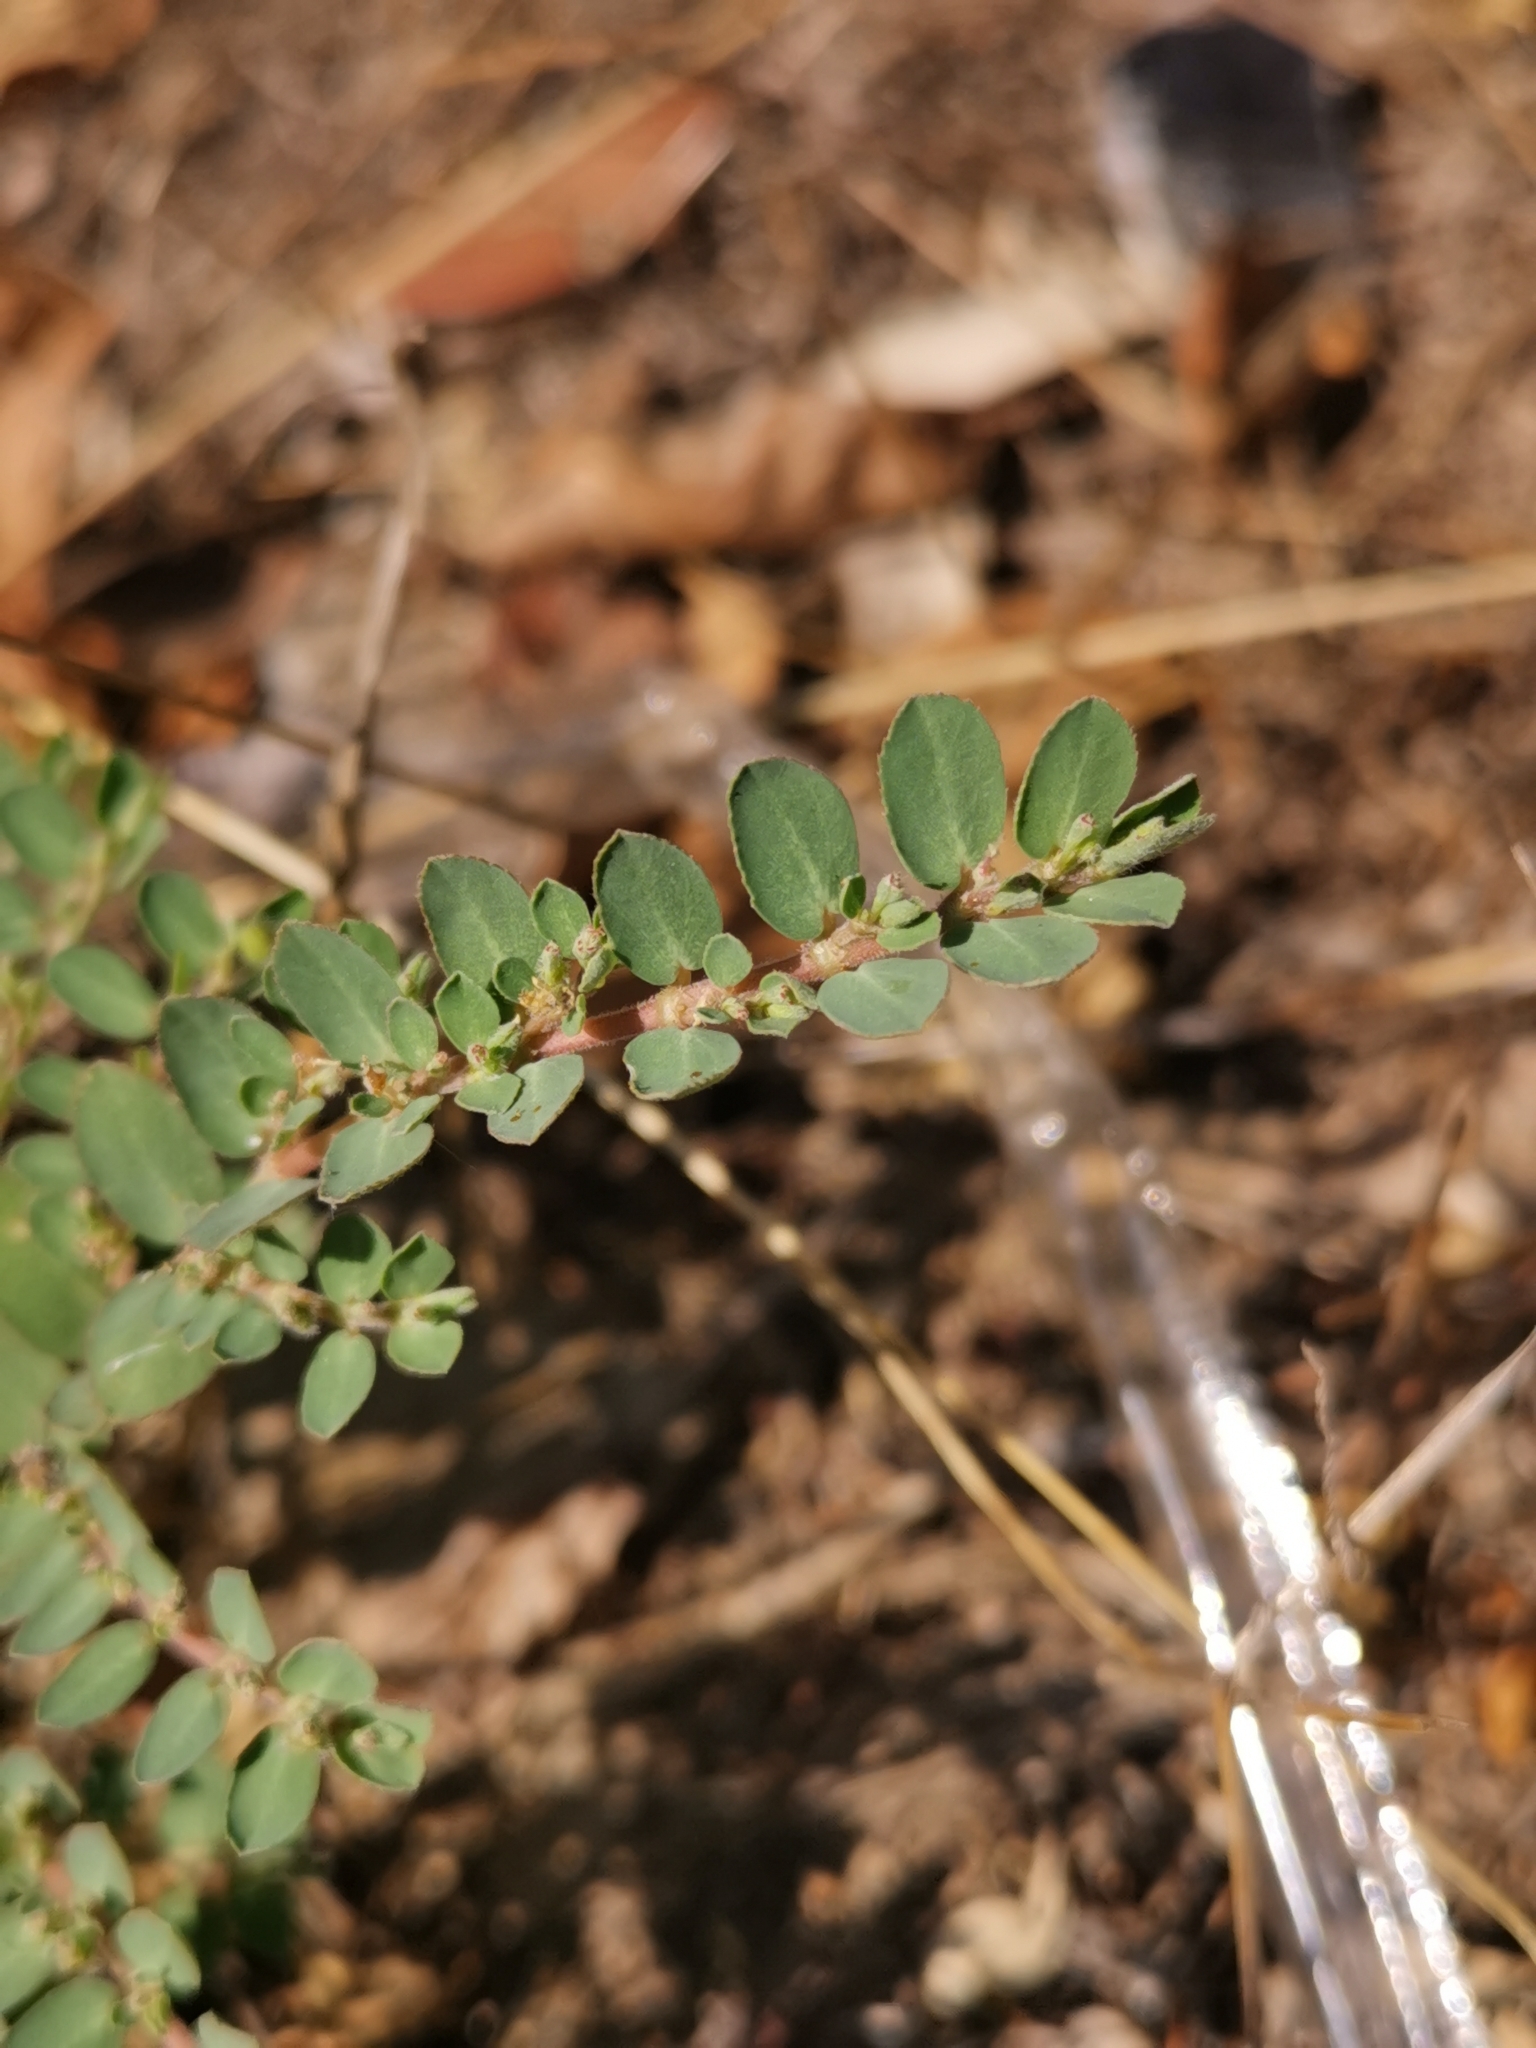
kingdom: Plantae
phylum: Tracheophyta
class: Magnoliopsida
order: Malpighiales
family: Euphorbiaceae
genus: Euphorbia
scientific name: Euphorbia prostrata
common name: Prostrate sandmat
